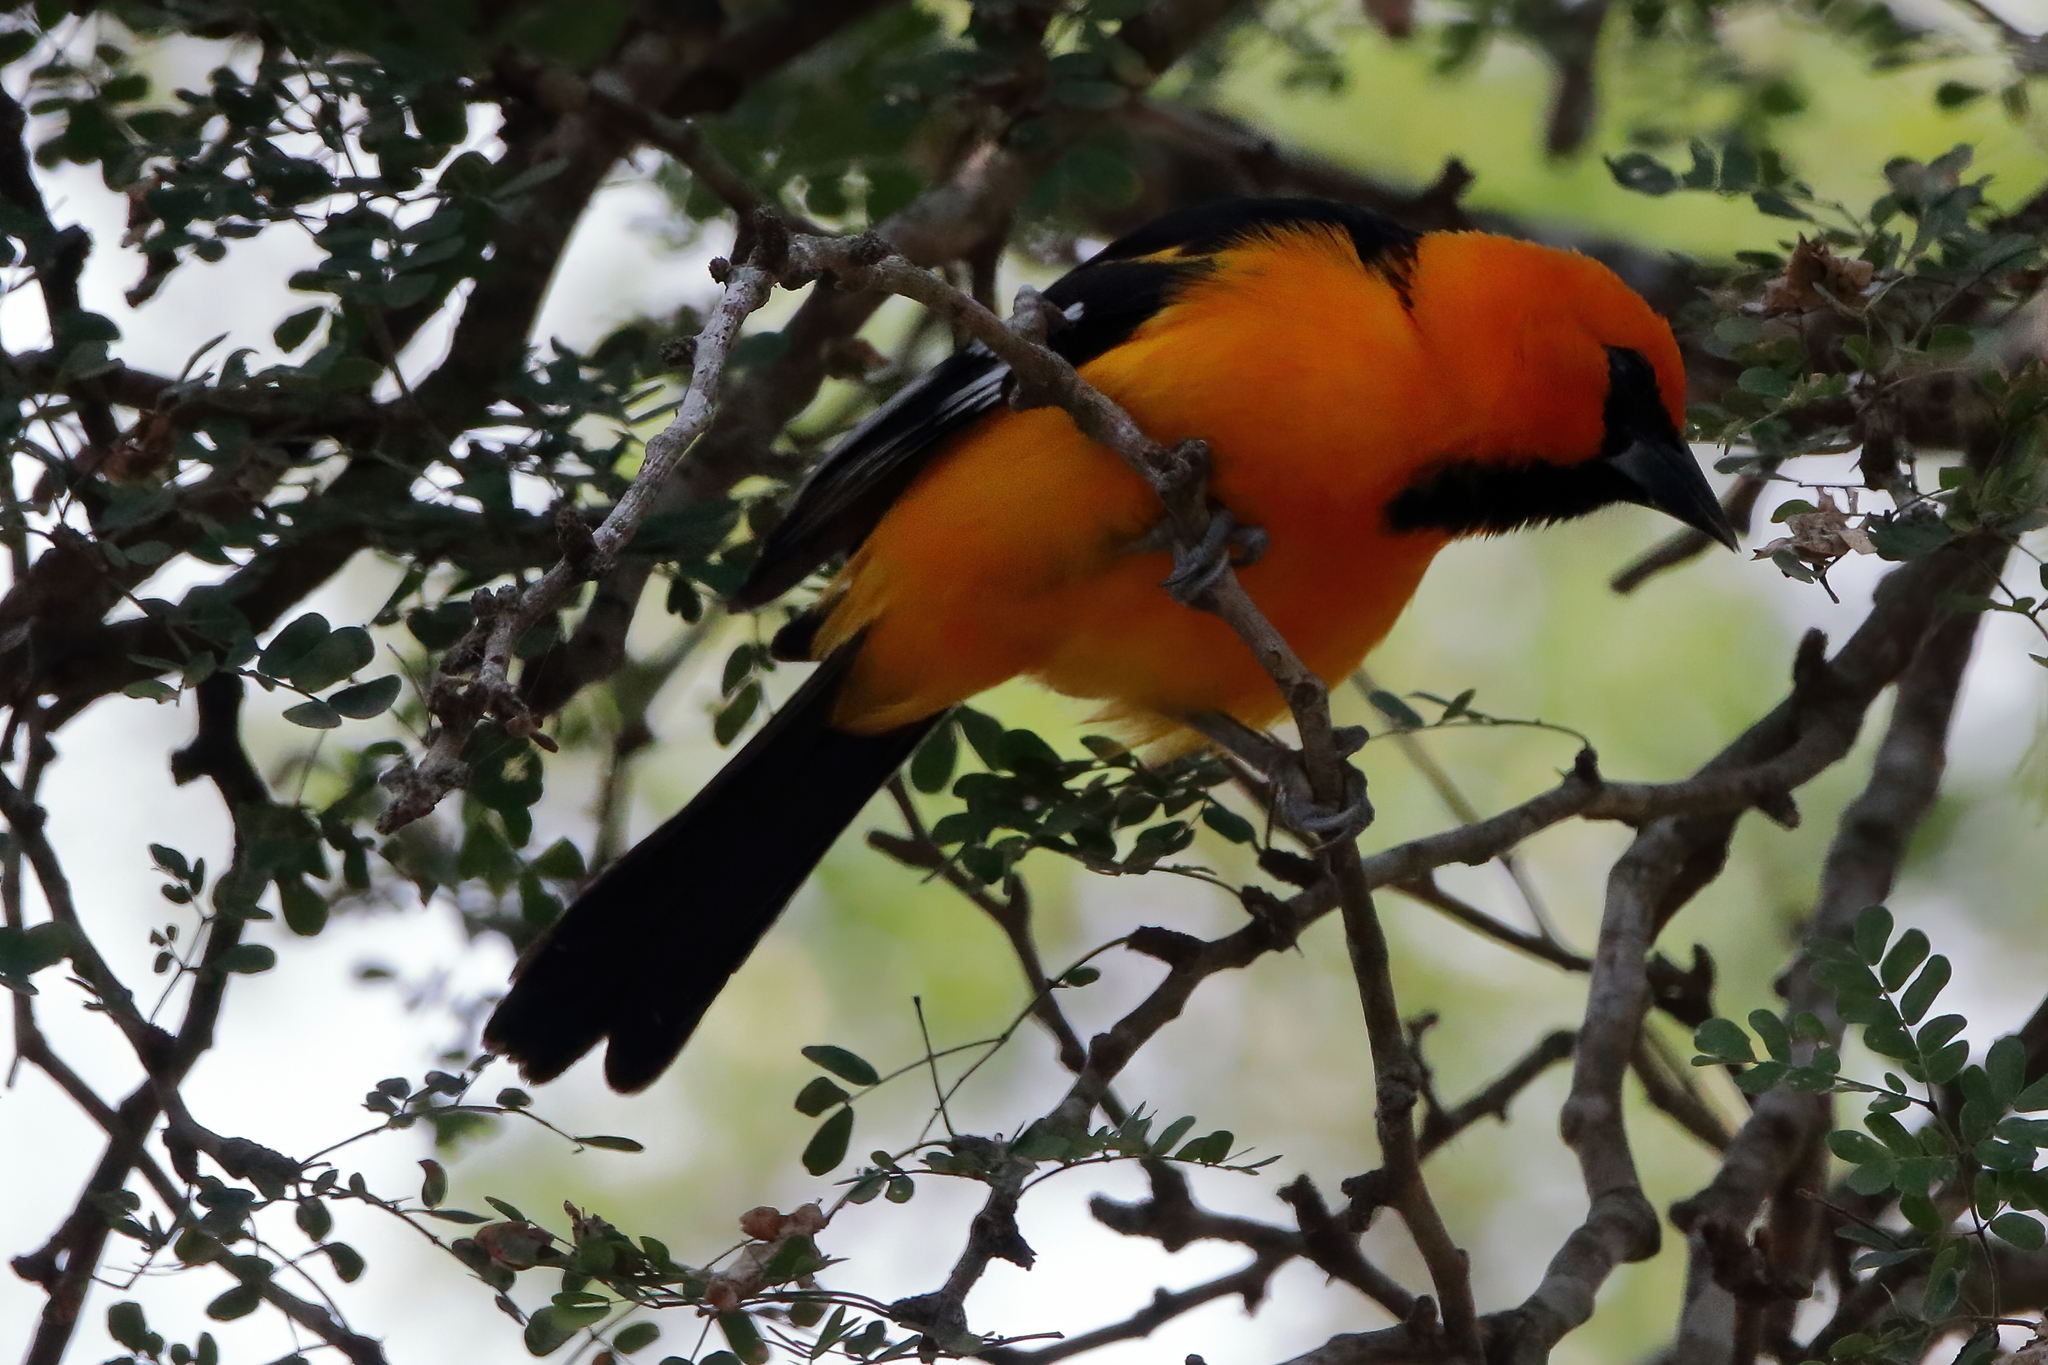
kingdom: Animalia
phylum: Chordata
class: Aves
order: Passeriformes
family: Icteridae
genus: Icterus
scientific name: Icterus gularis
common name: Altamira oriole
